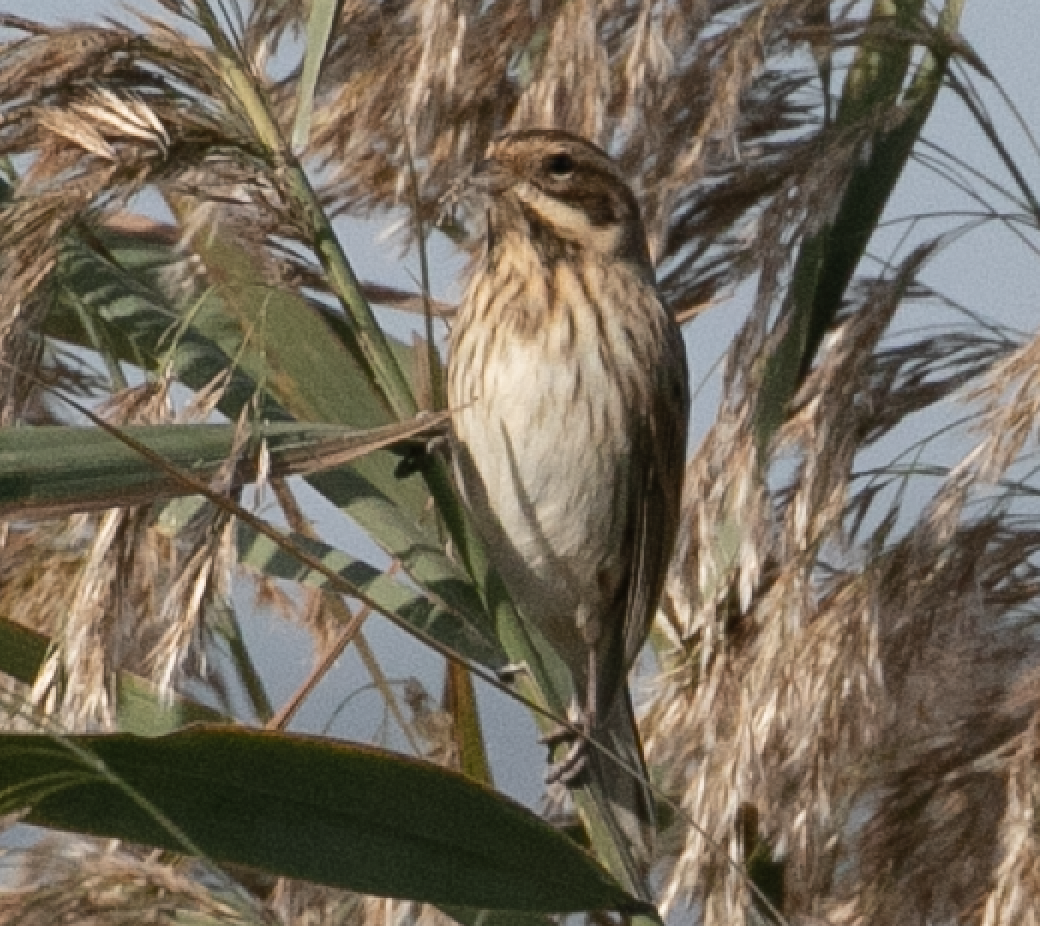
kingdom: Animalia
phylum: Chordata
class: Aves
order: Passeriformes
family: Emberizidae
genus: Emberiza
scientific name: Emberiza schoeniclus
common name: Reed bunting
